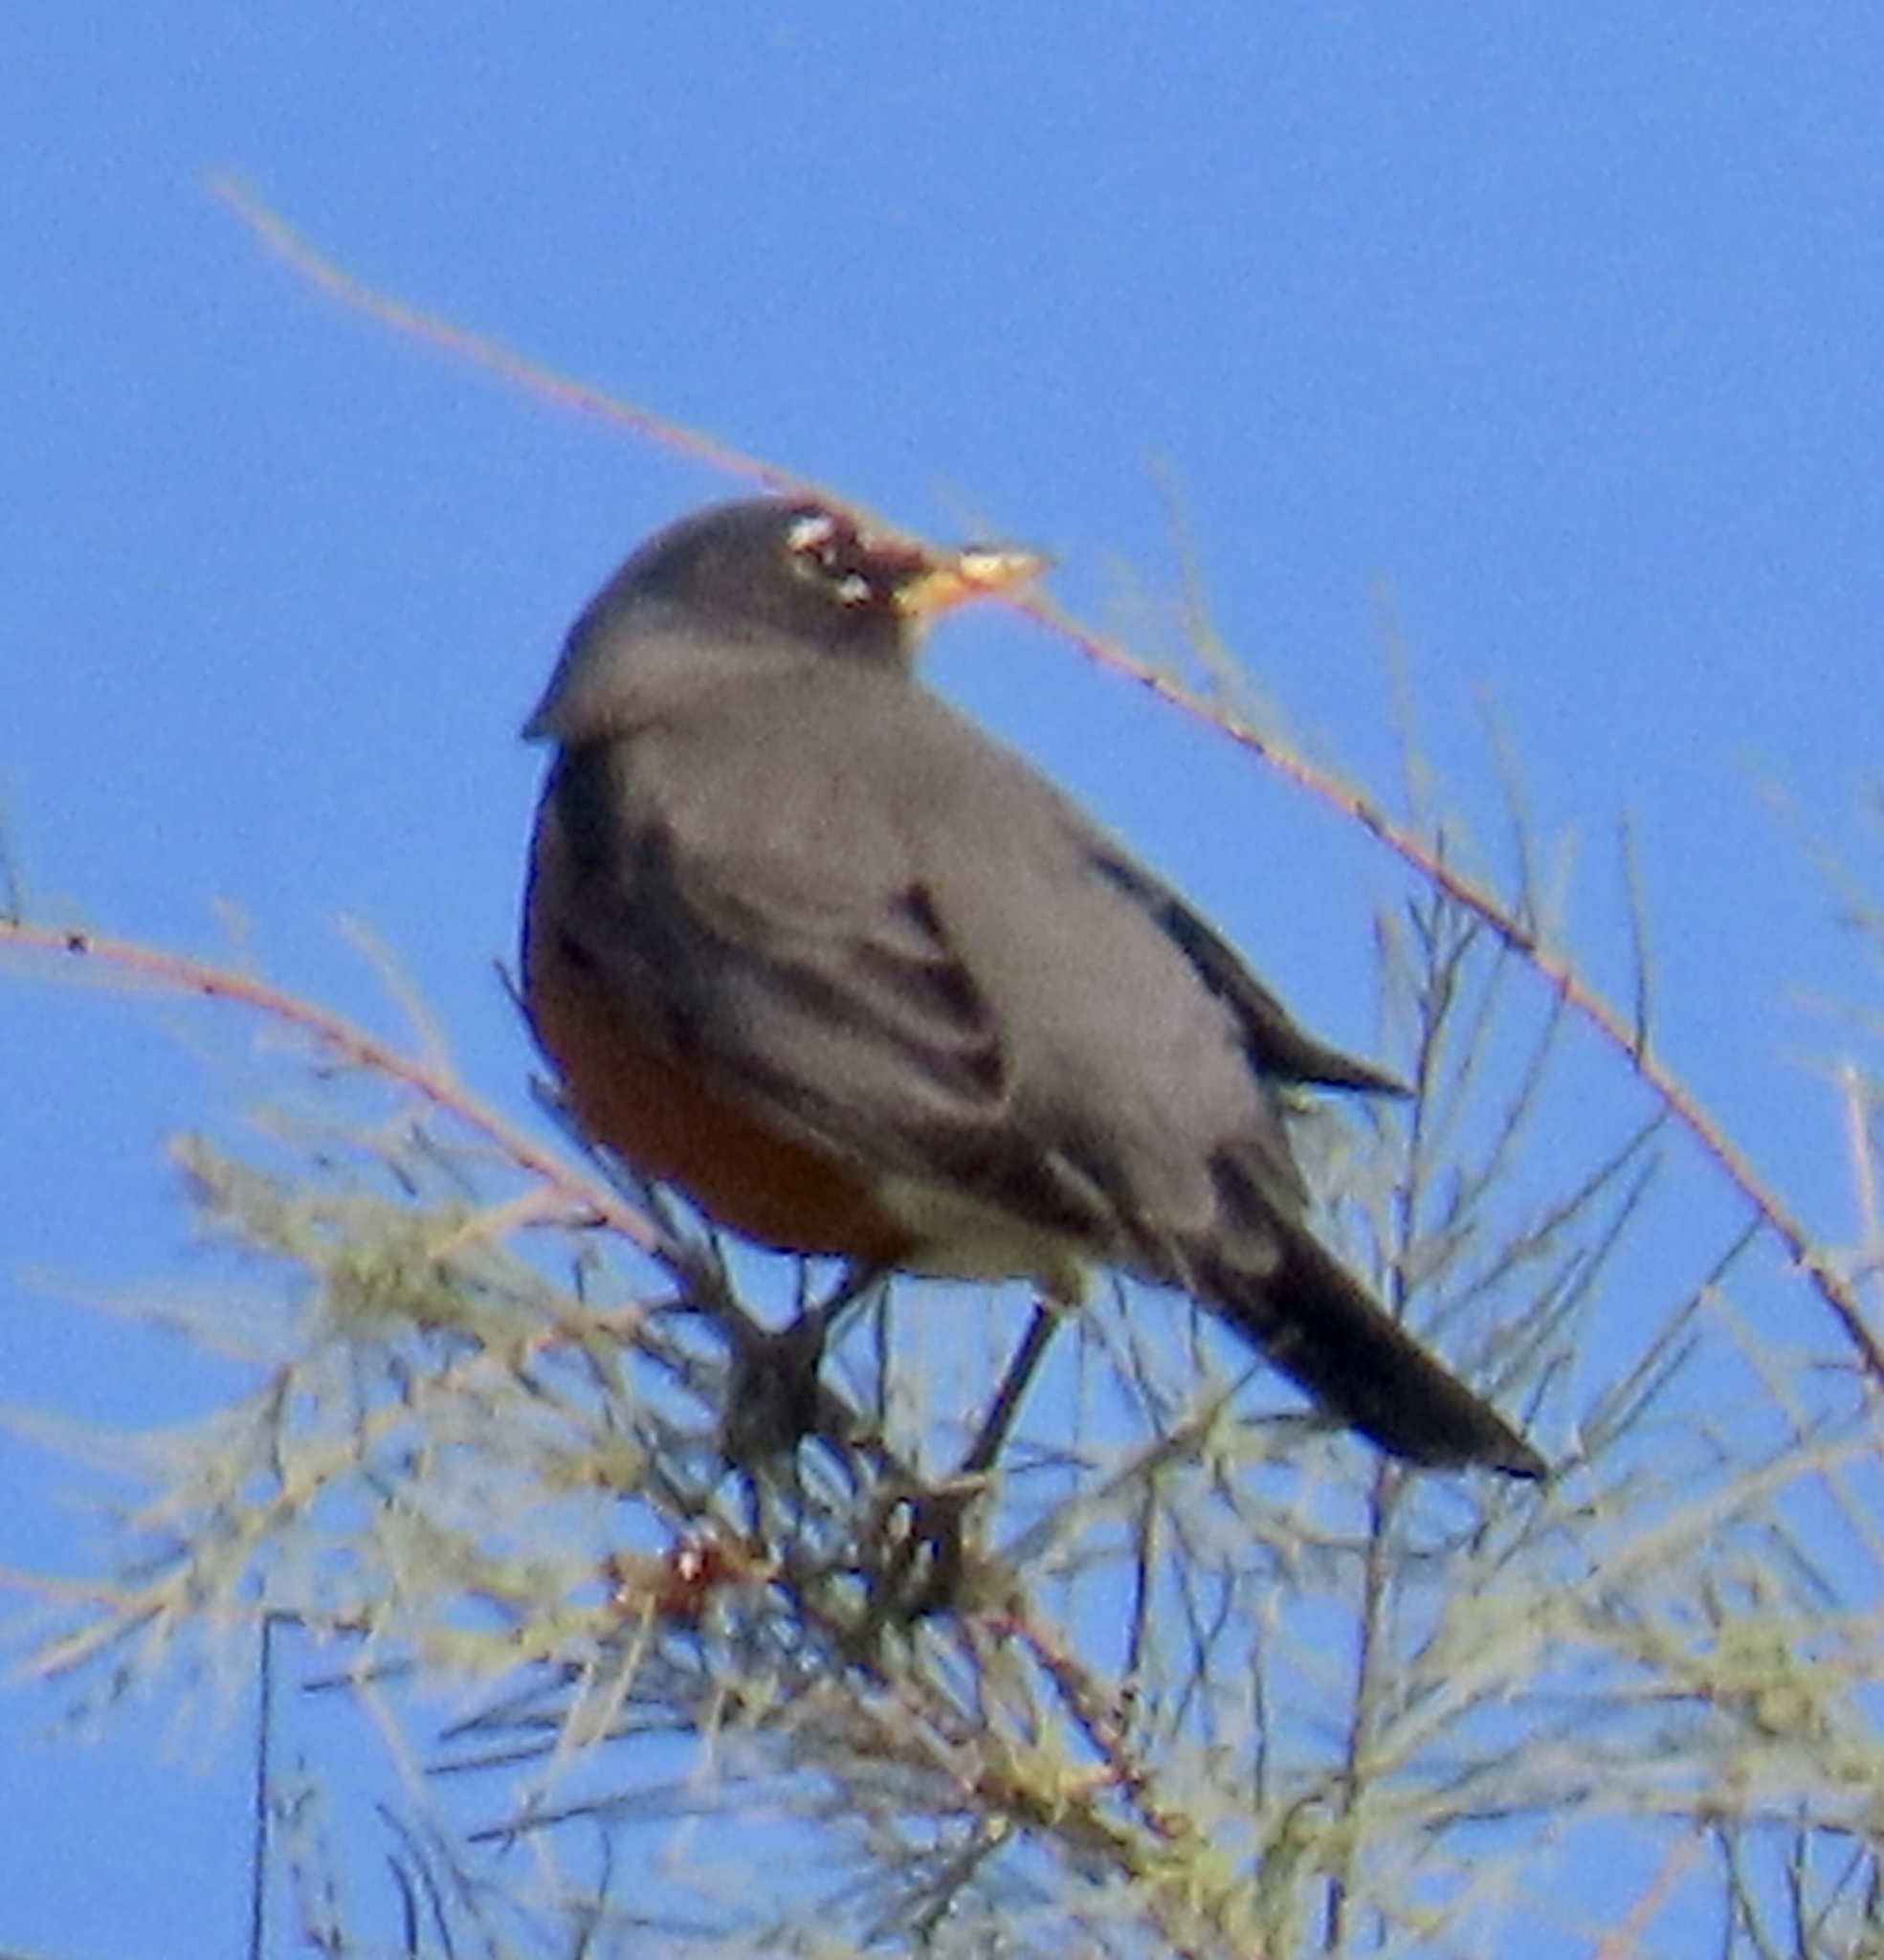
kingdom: Animalia
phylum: Chordata
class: Aves
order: Passeriformes
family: Turdidae
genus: Turdus
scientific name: Turdus migratorius
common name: American robin
